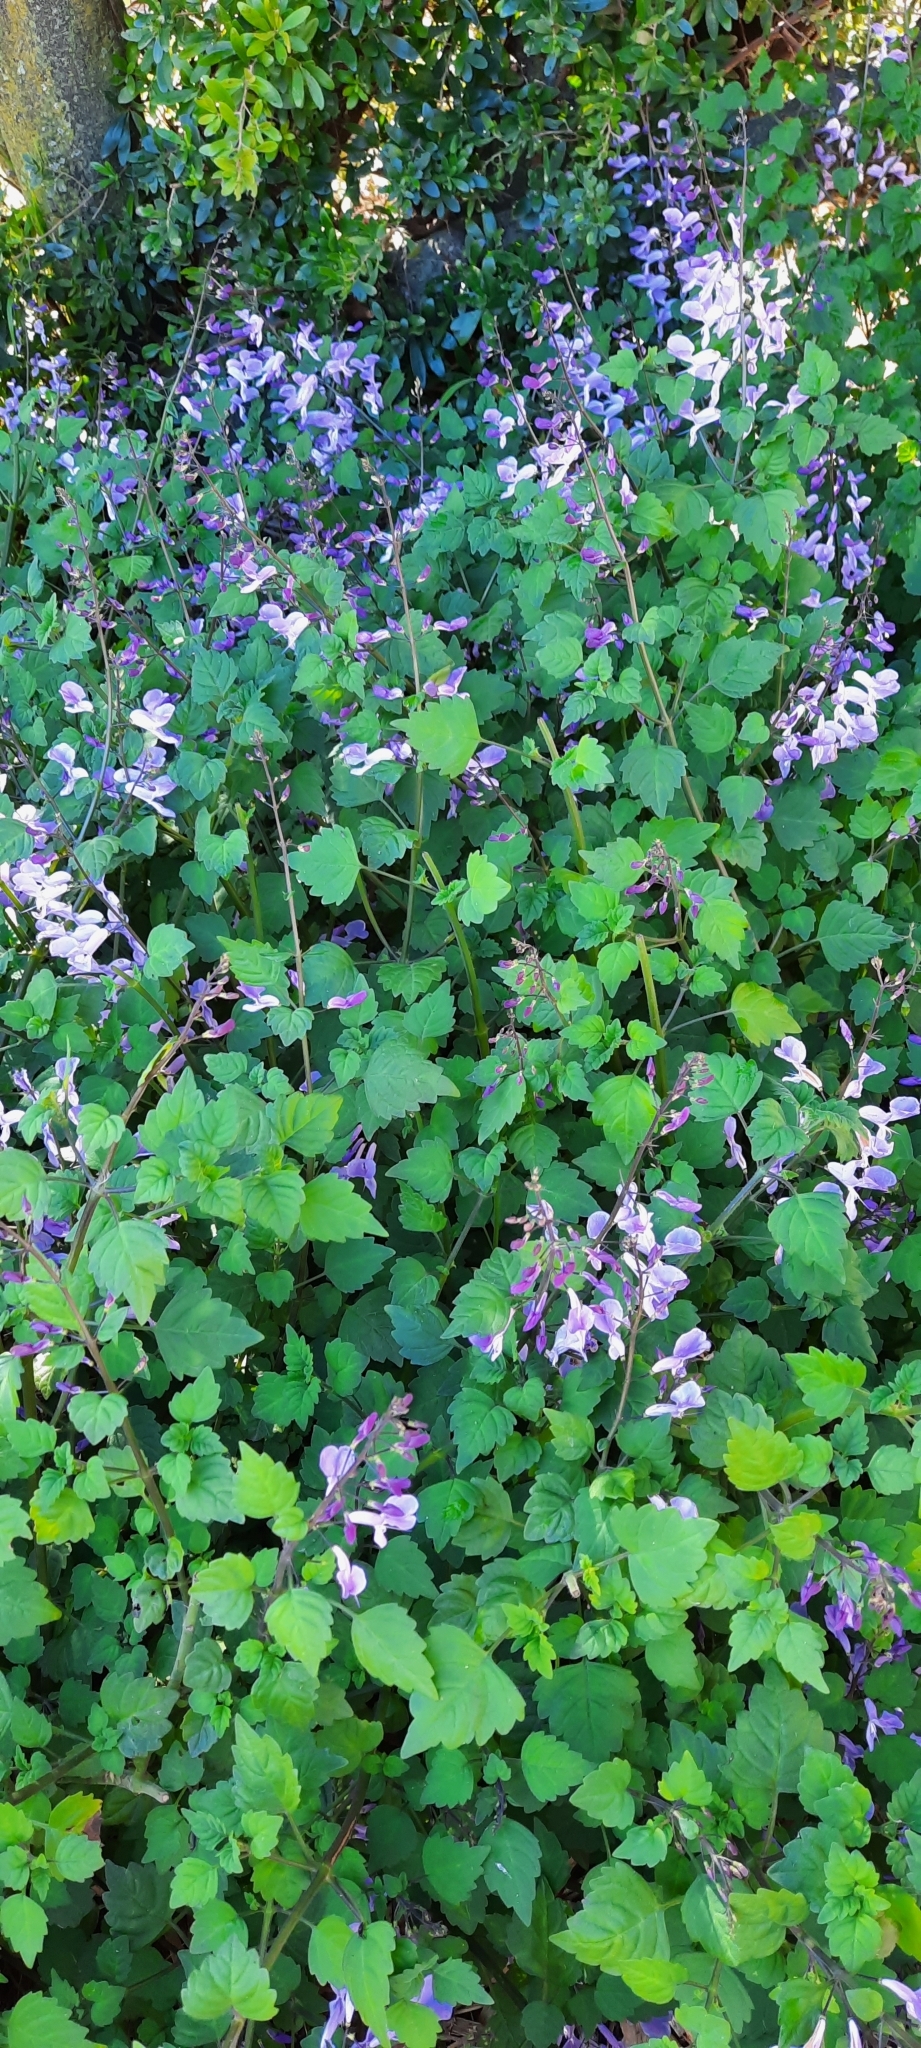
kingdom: Plantae
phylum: Tracheophyta
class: Magnoliopsida
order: Lamiales
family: Lamiaceae
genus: Plectranthus
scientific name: Plectranthus saccatus
